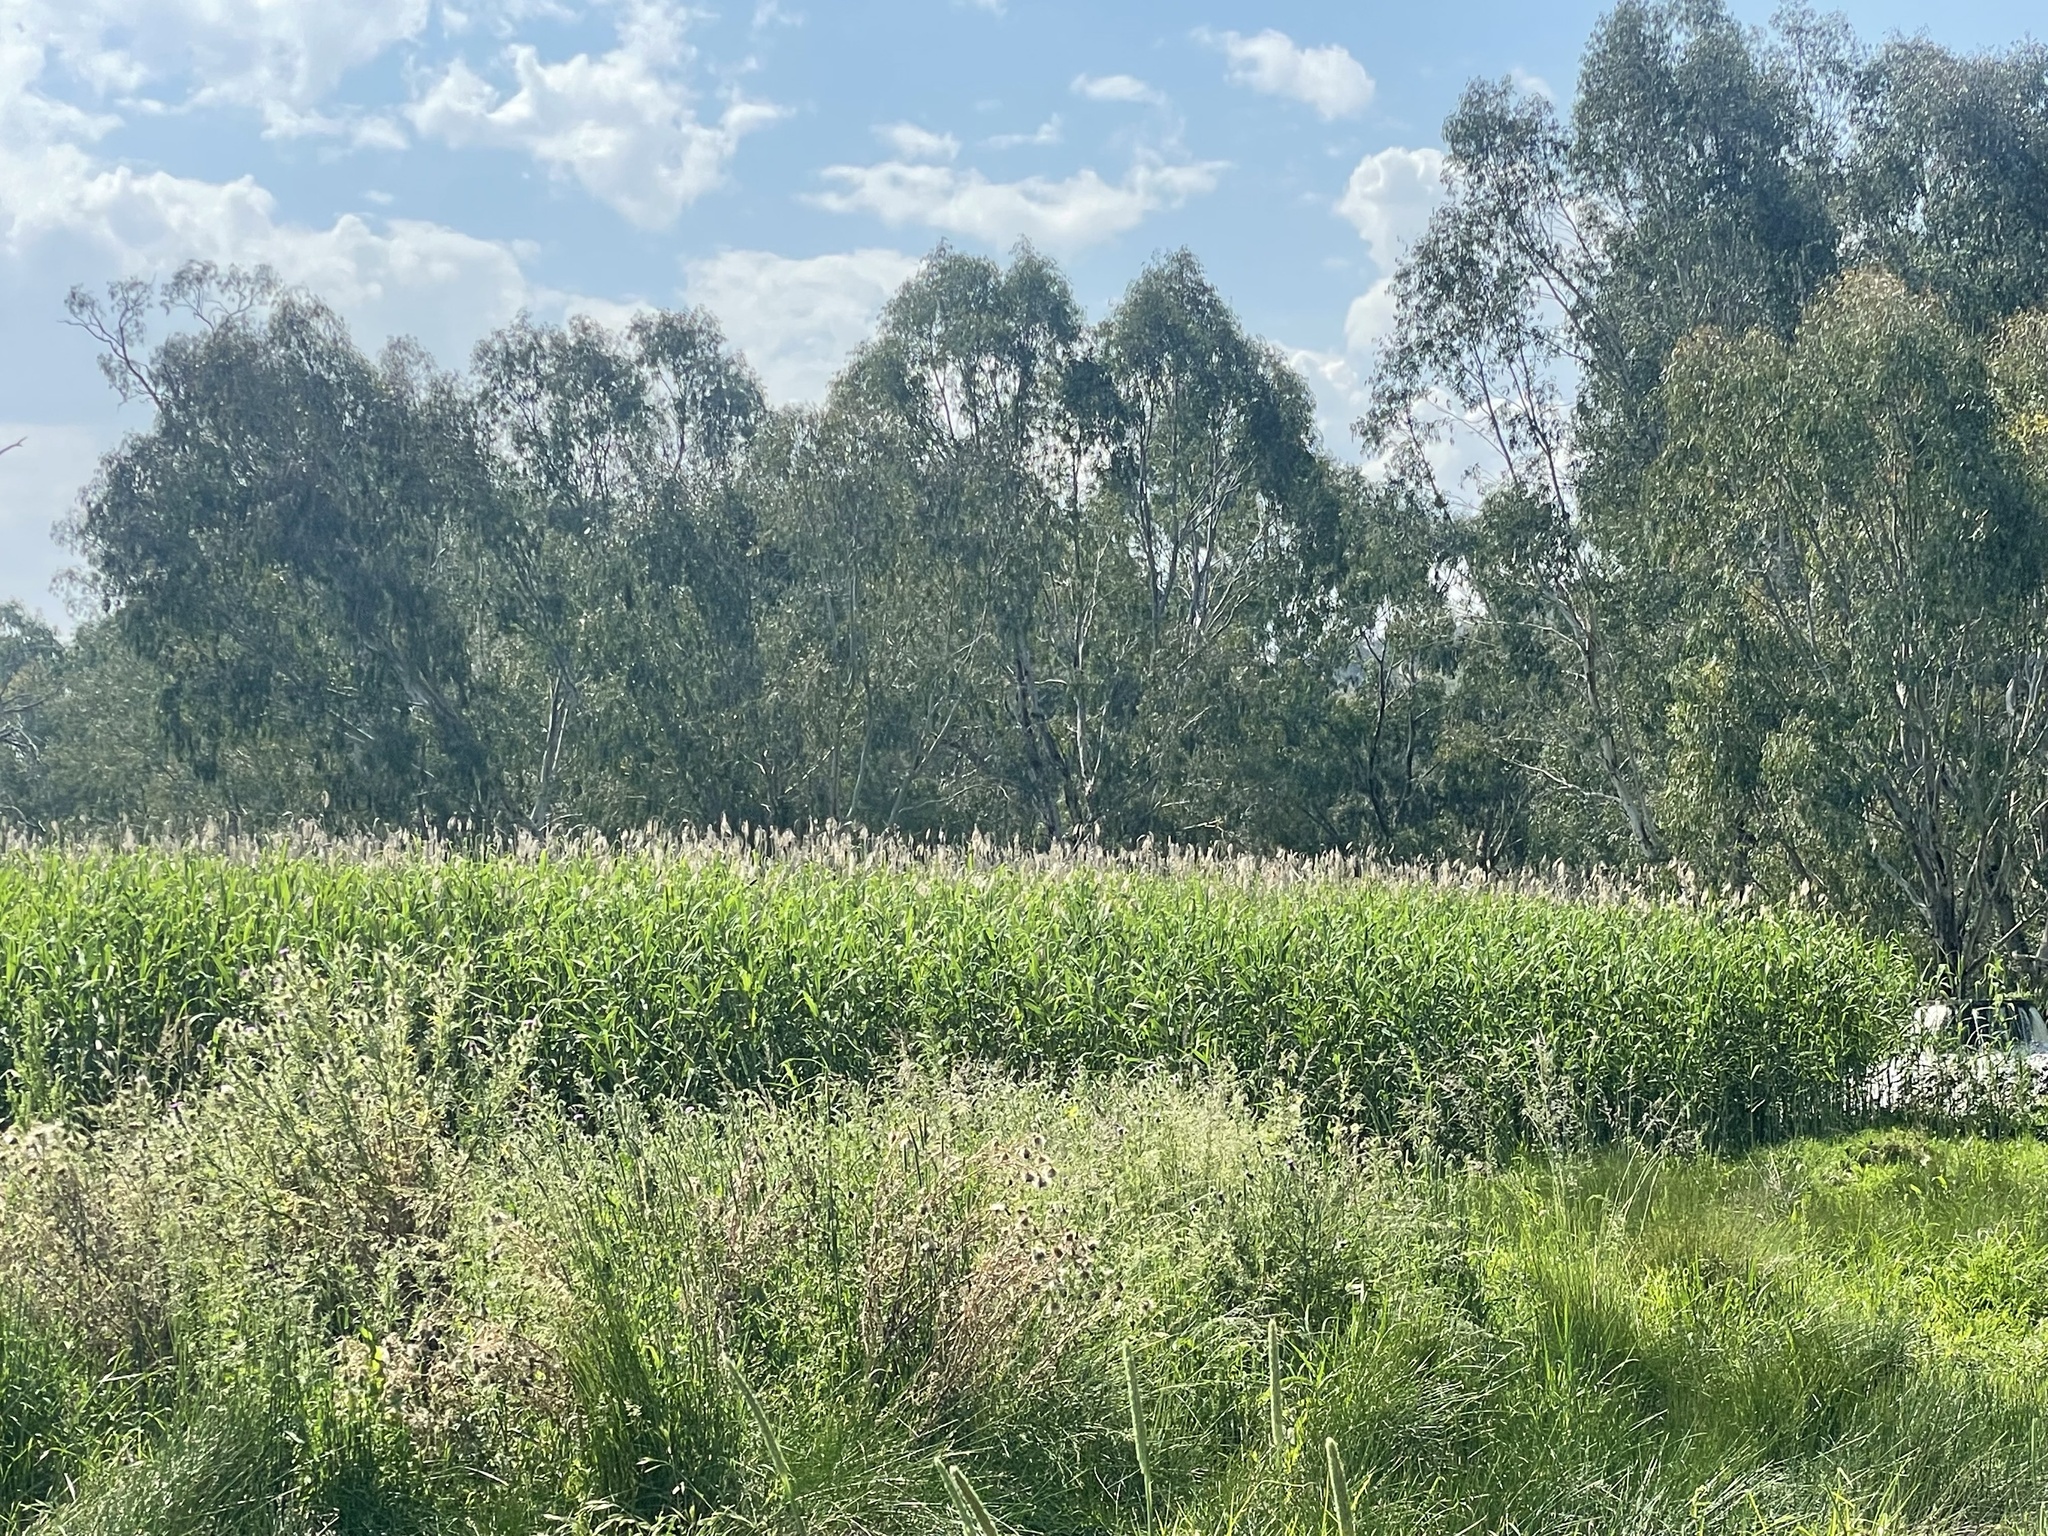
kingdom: Plantae
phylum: Tracheophyta
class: Liliopsida
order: Poales
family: Poaceae
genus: Phragmites
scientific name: Phragmites australis
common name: Common reed
